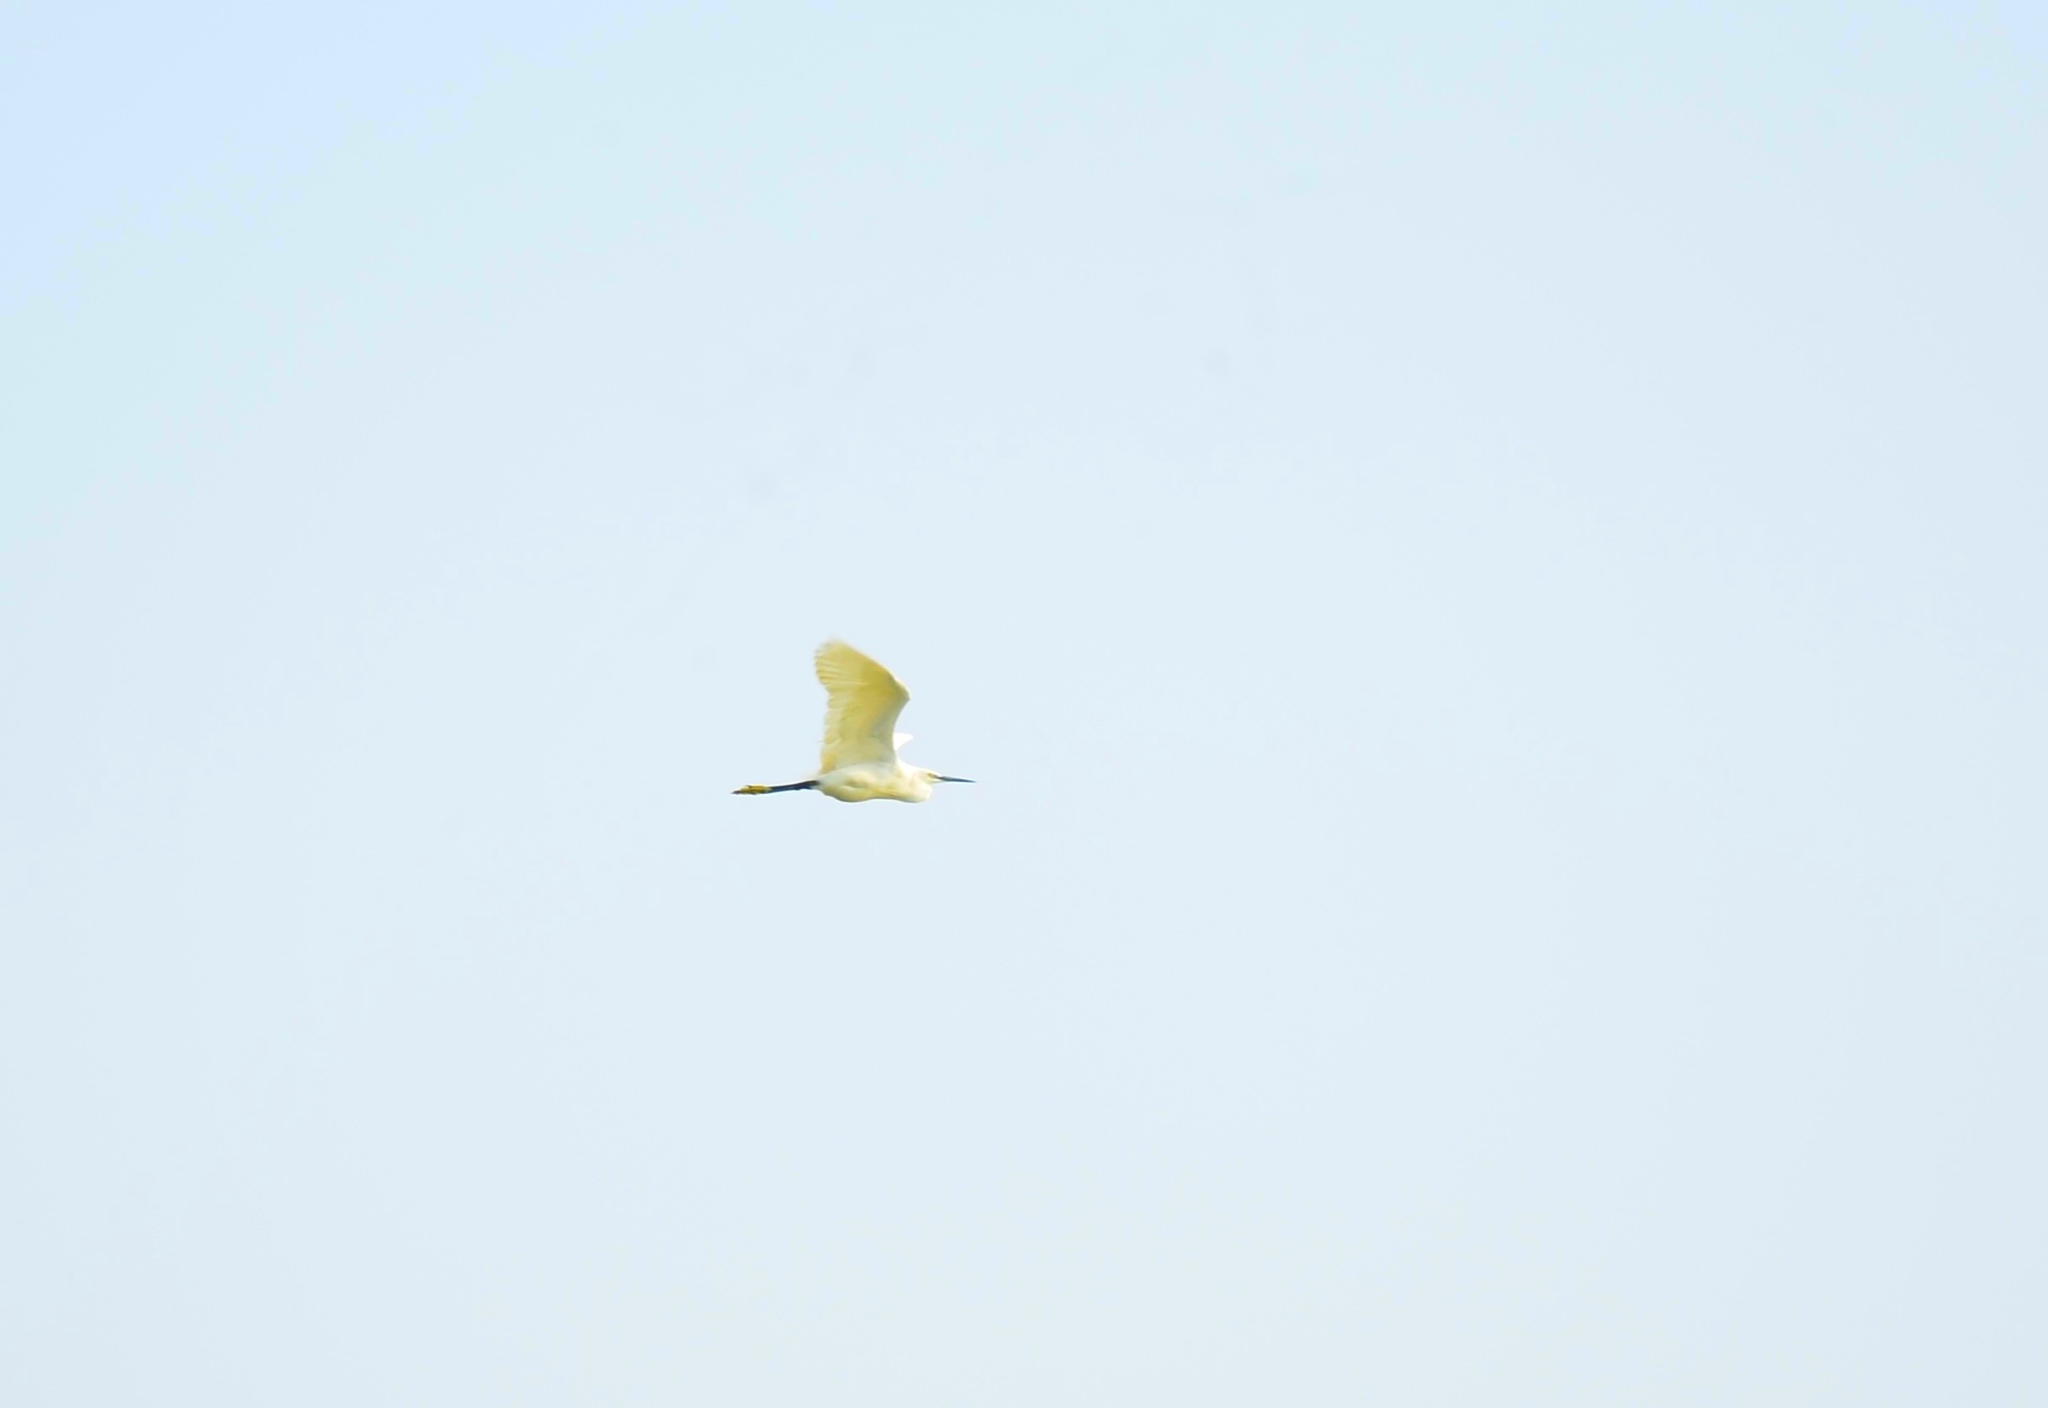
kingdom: Animalia
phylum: Chordata
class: Aves
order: Pelecaniformes
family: Ardeidae
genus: Egretta
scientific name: Egretta garzetta
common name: Little egret
